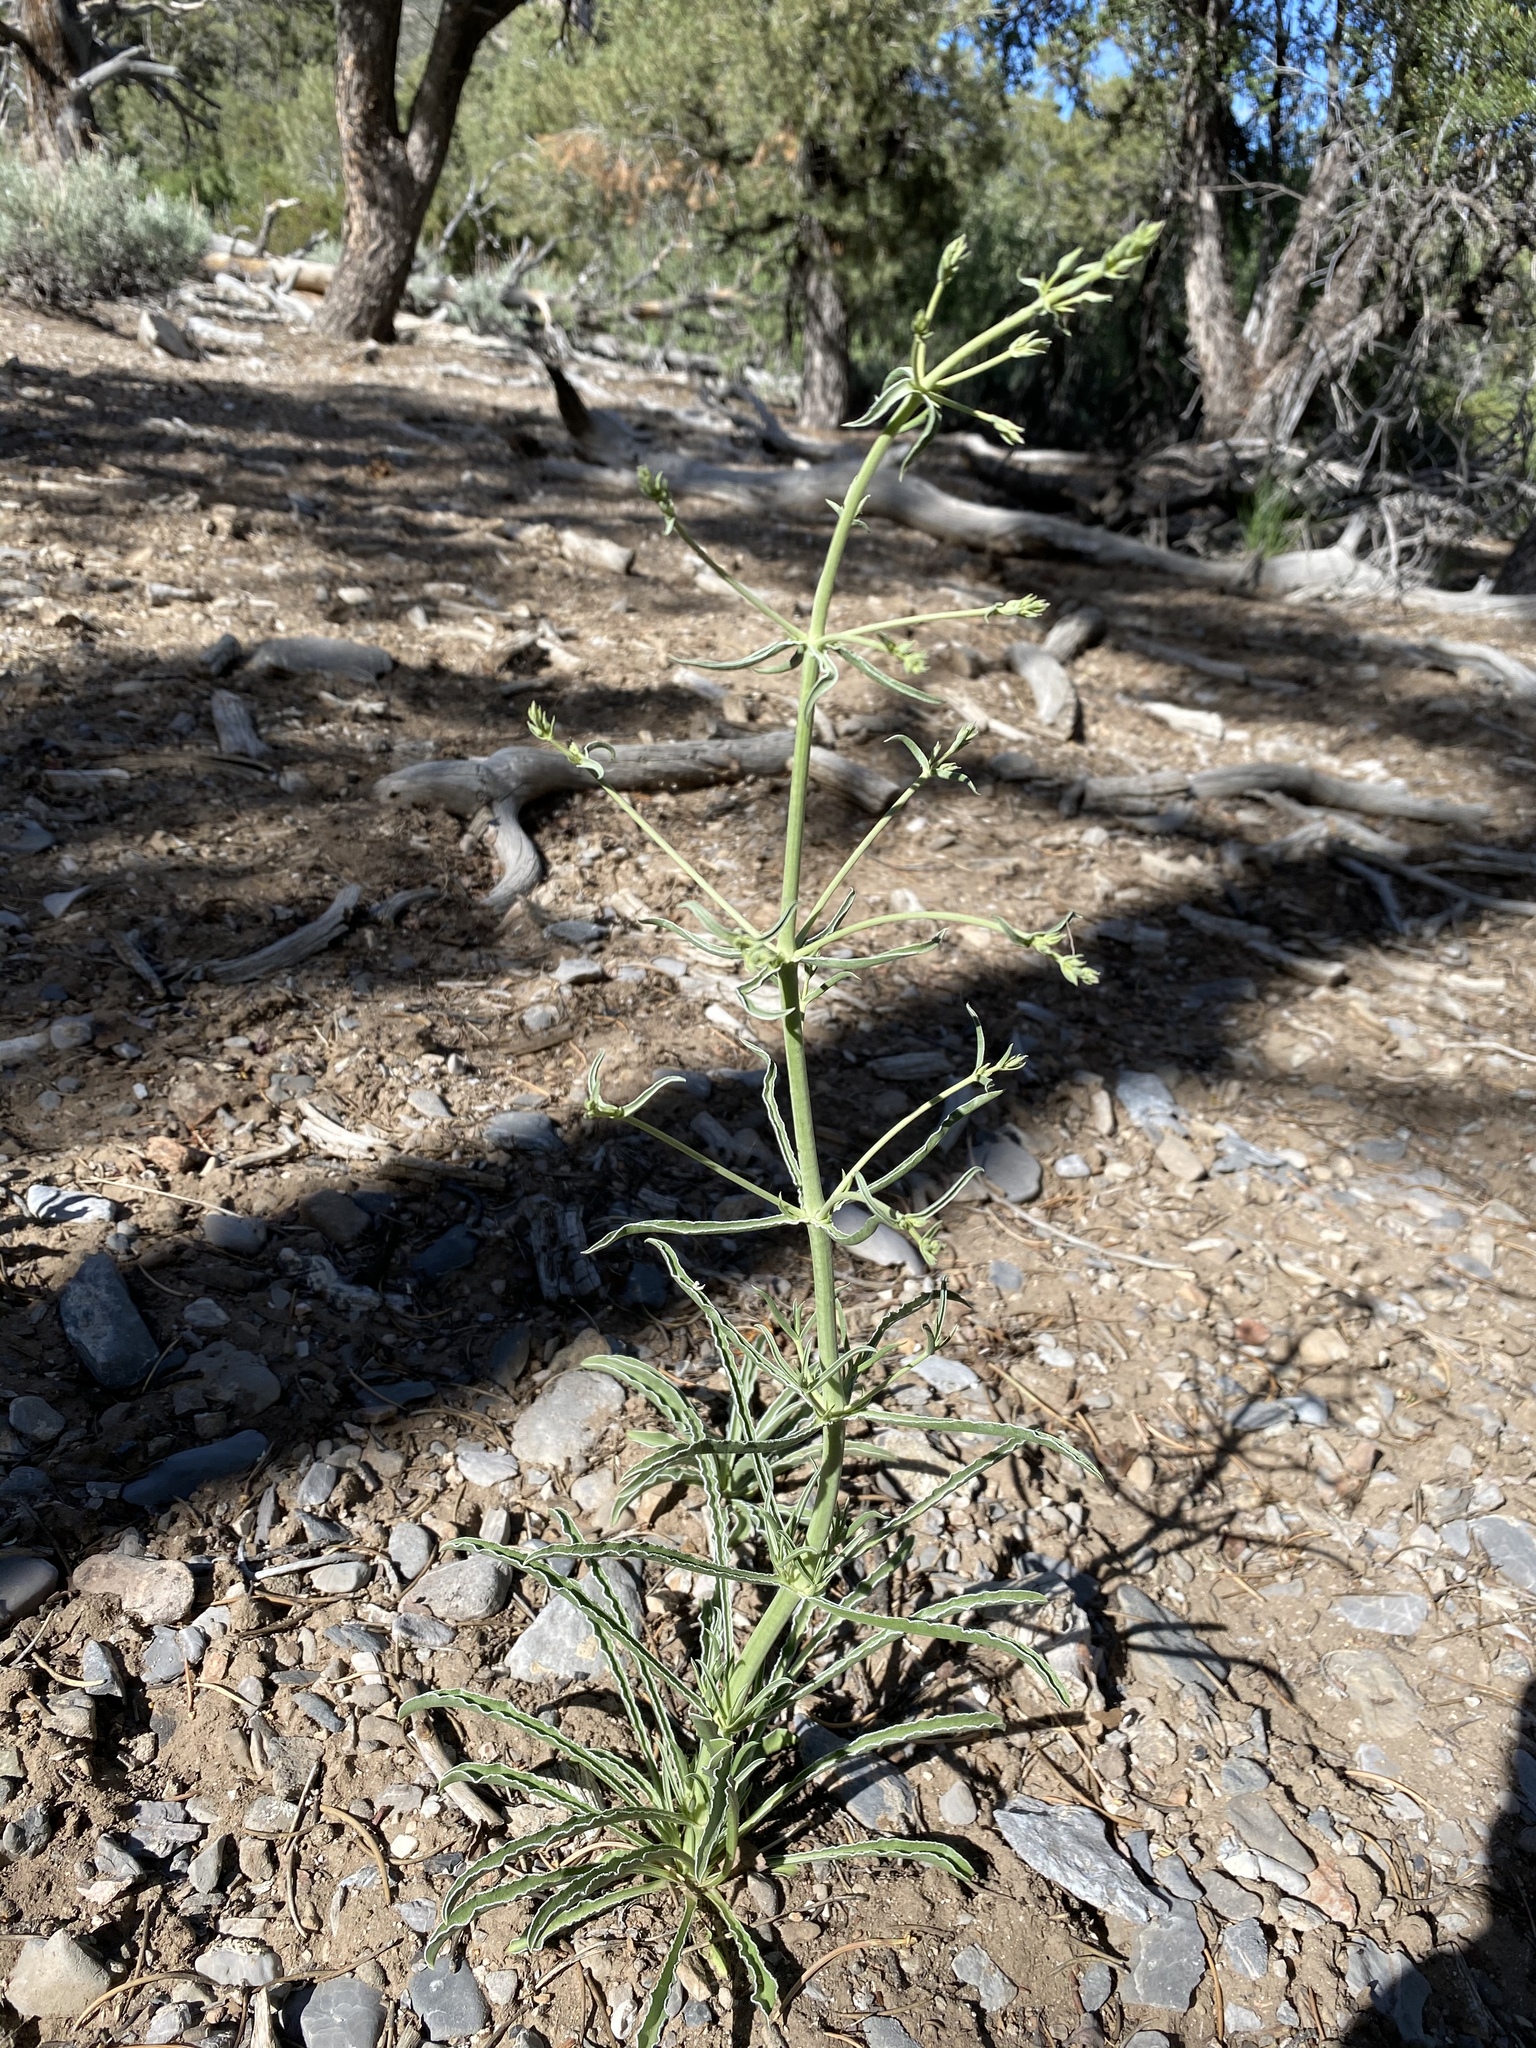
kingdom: Plantae
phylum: Tracheophyta
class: Magnoliopsida
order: Gentianales
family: Gentianaceae
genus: Frasera
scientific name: Frasera albomarginata
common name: Desert frasera
